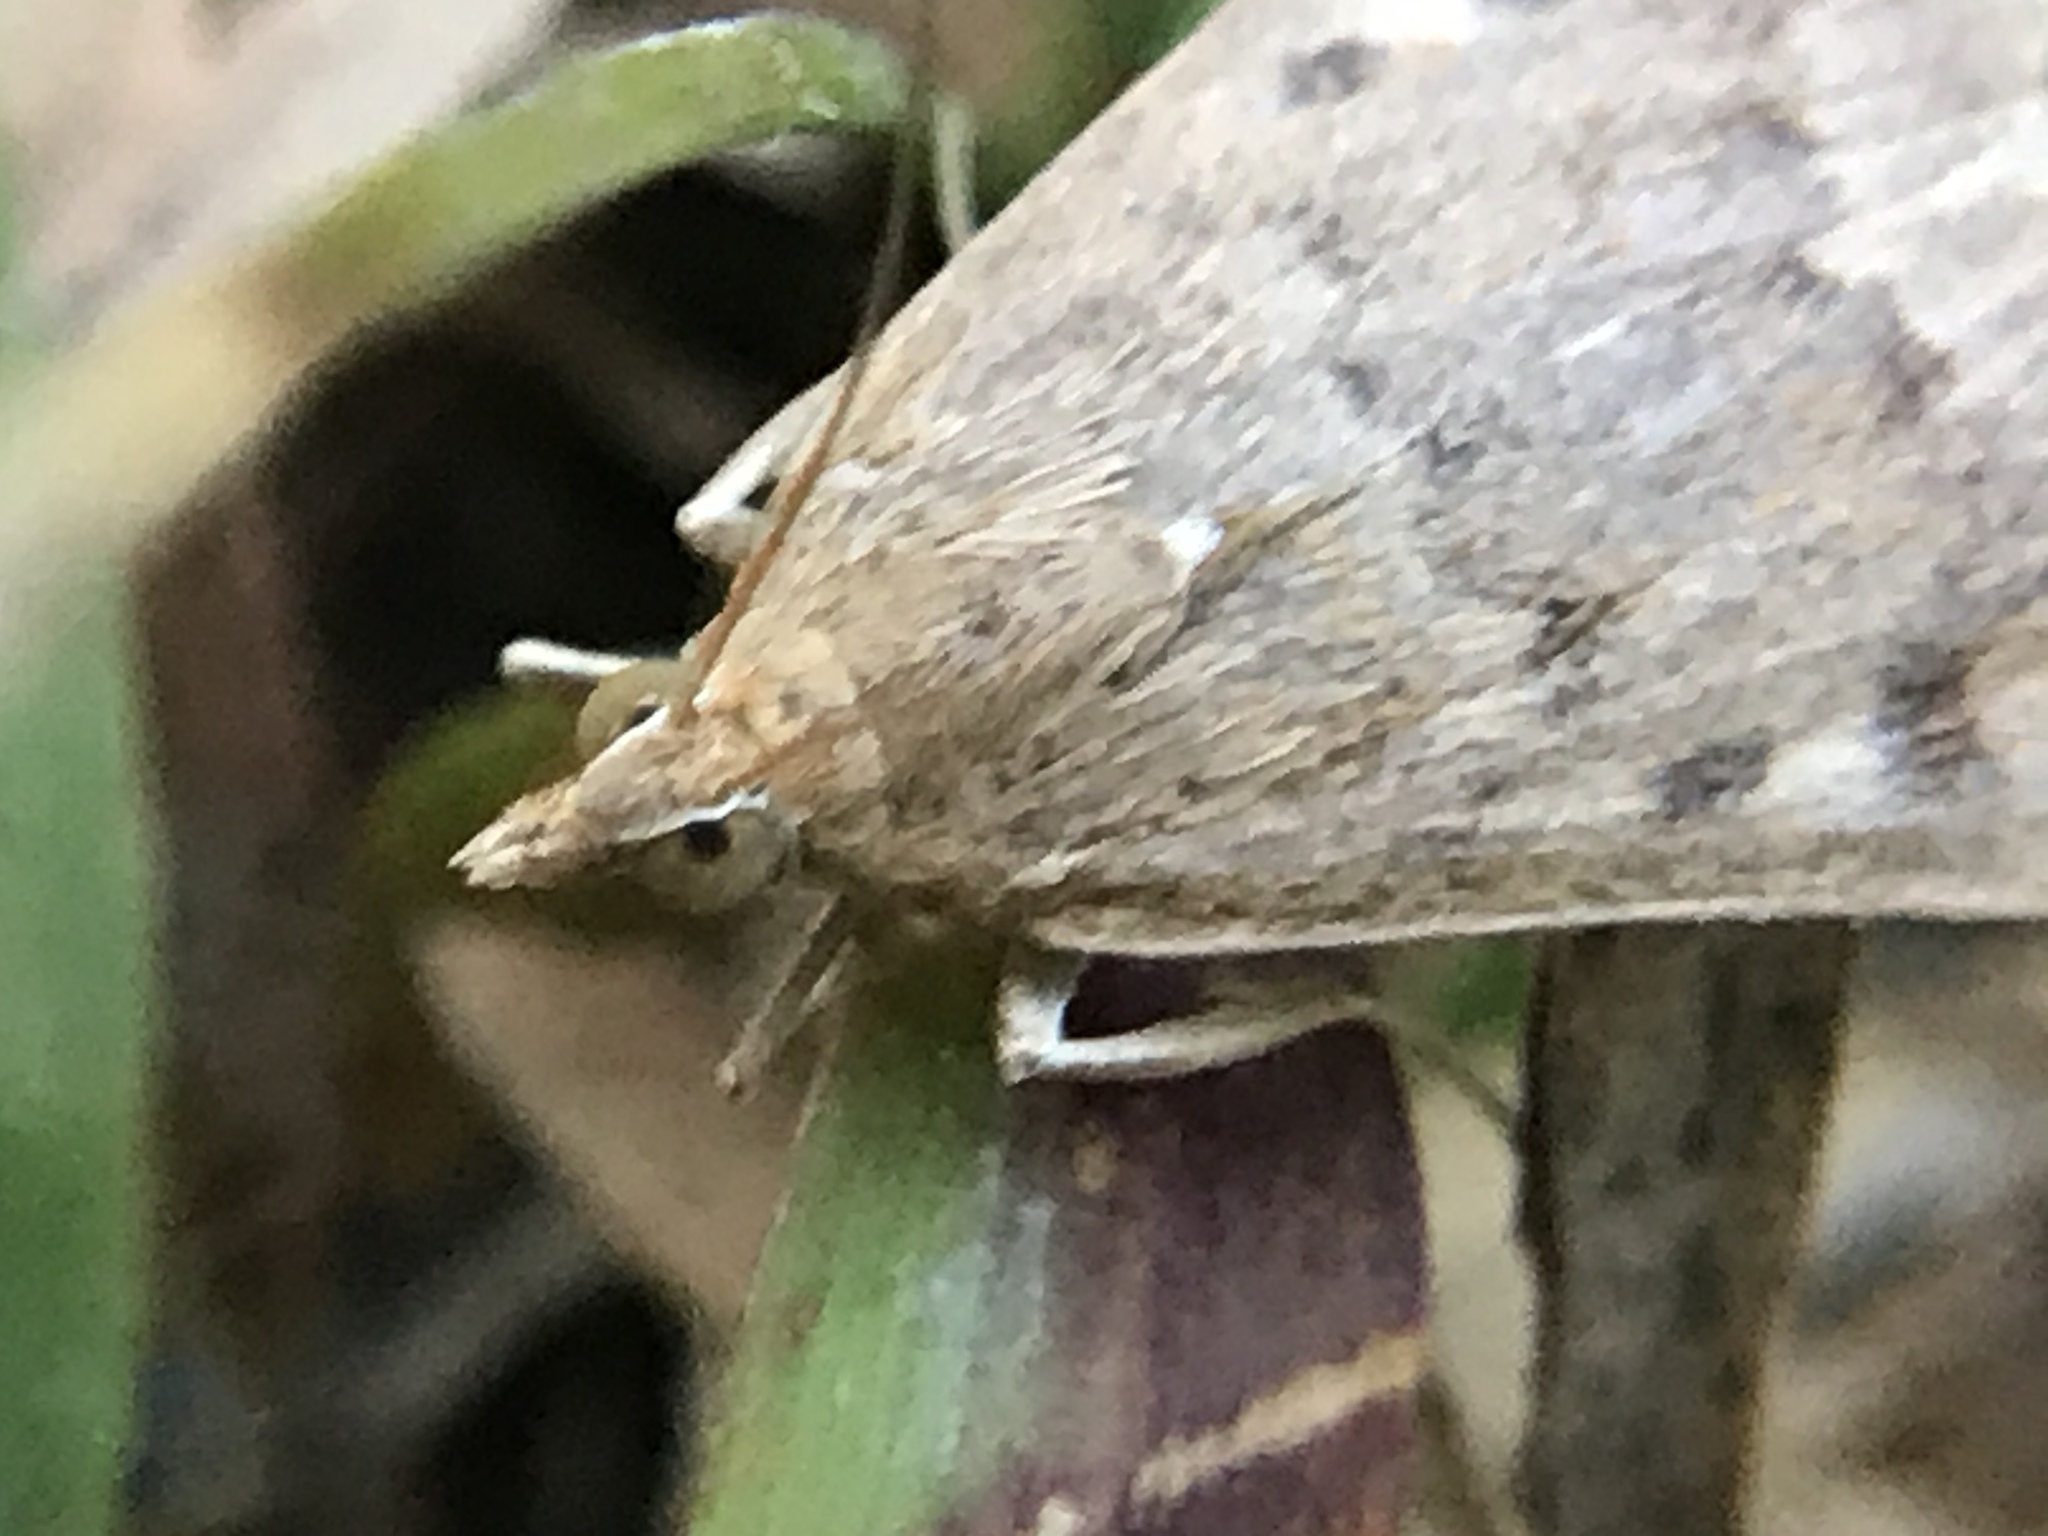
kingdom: Animalia
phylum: Arthropoda
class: Insecta
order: Lepidoptera
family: Crambidae
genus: Achyra
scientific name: Achyra rantalis
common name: Garden webworm
